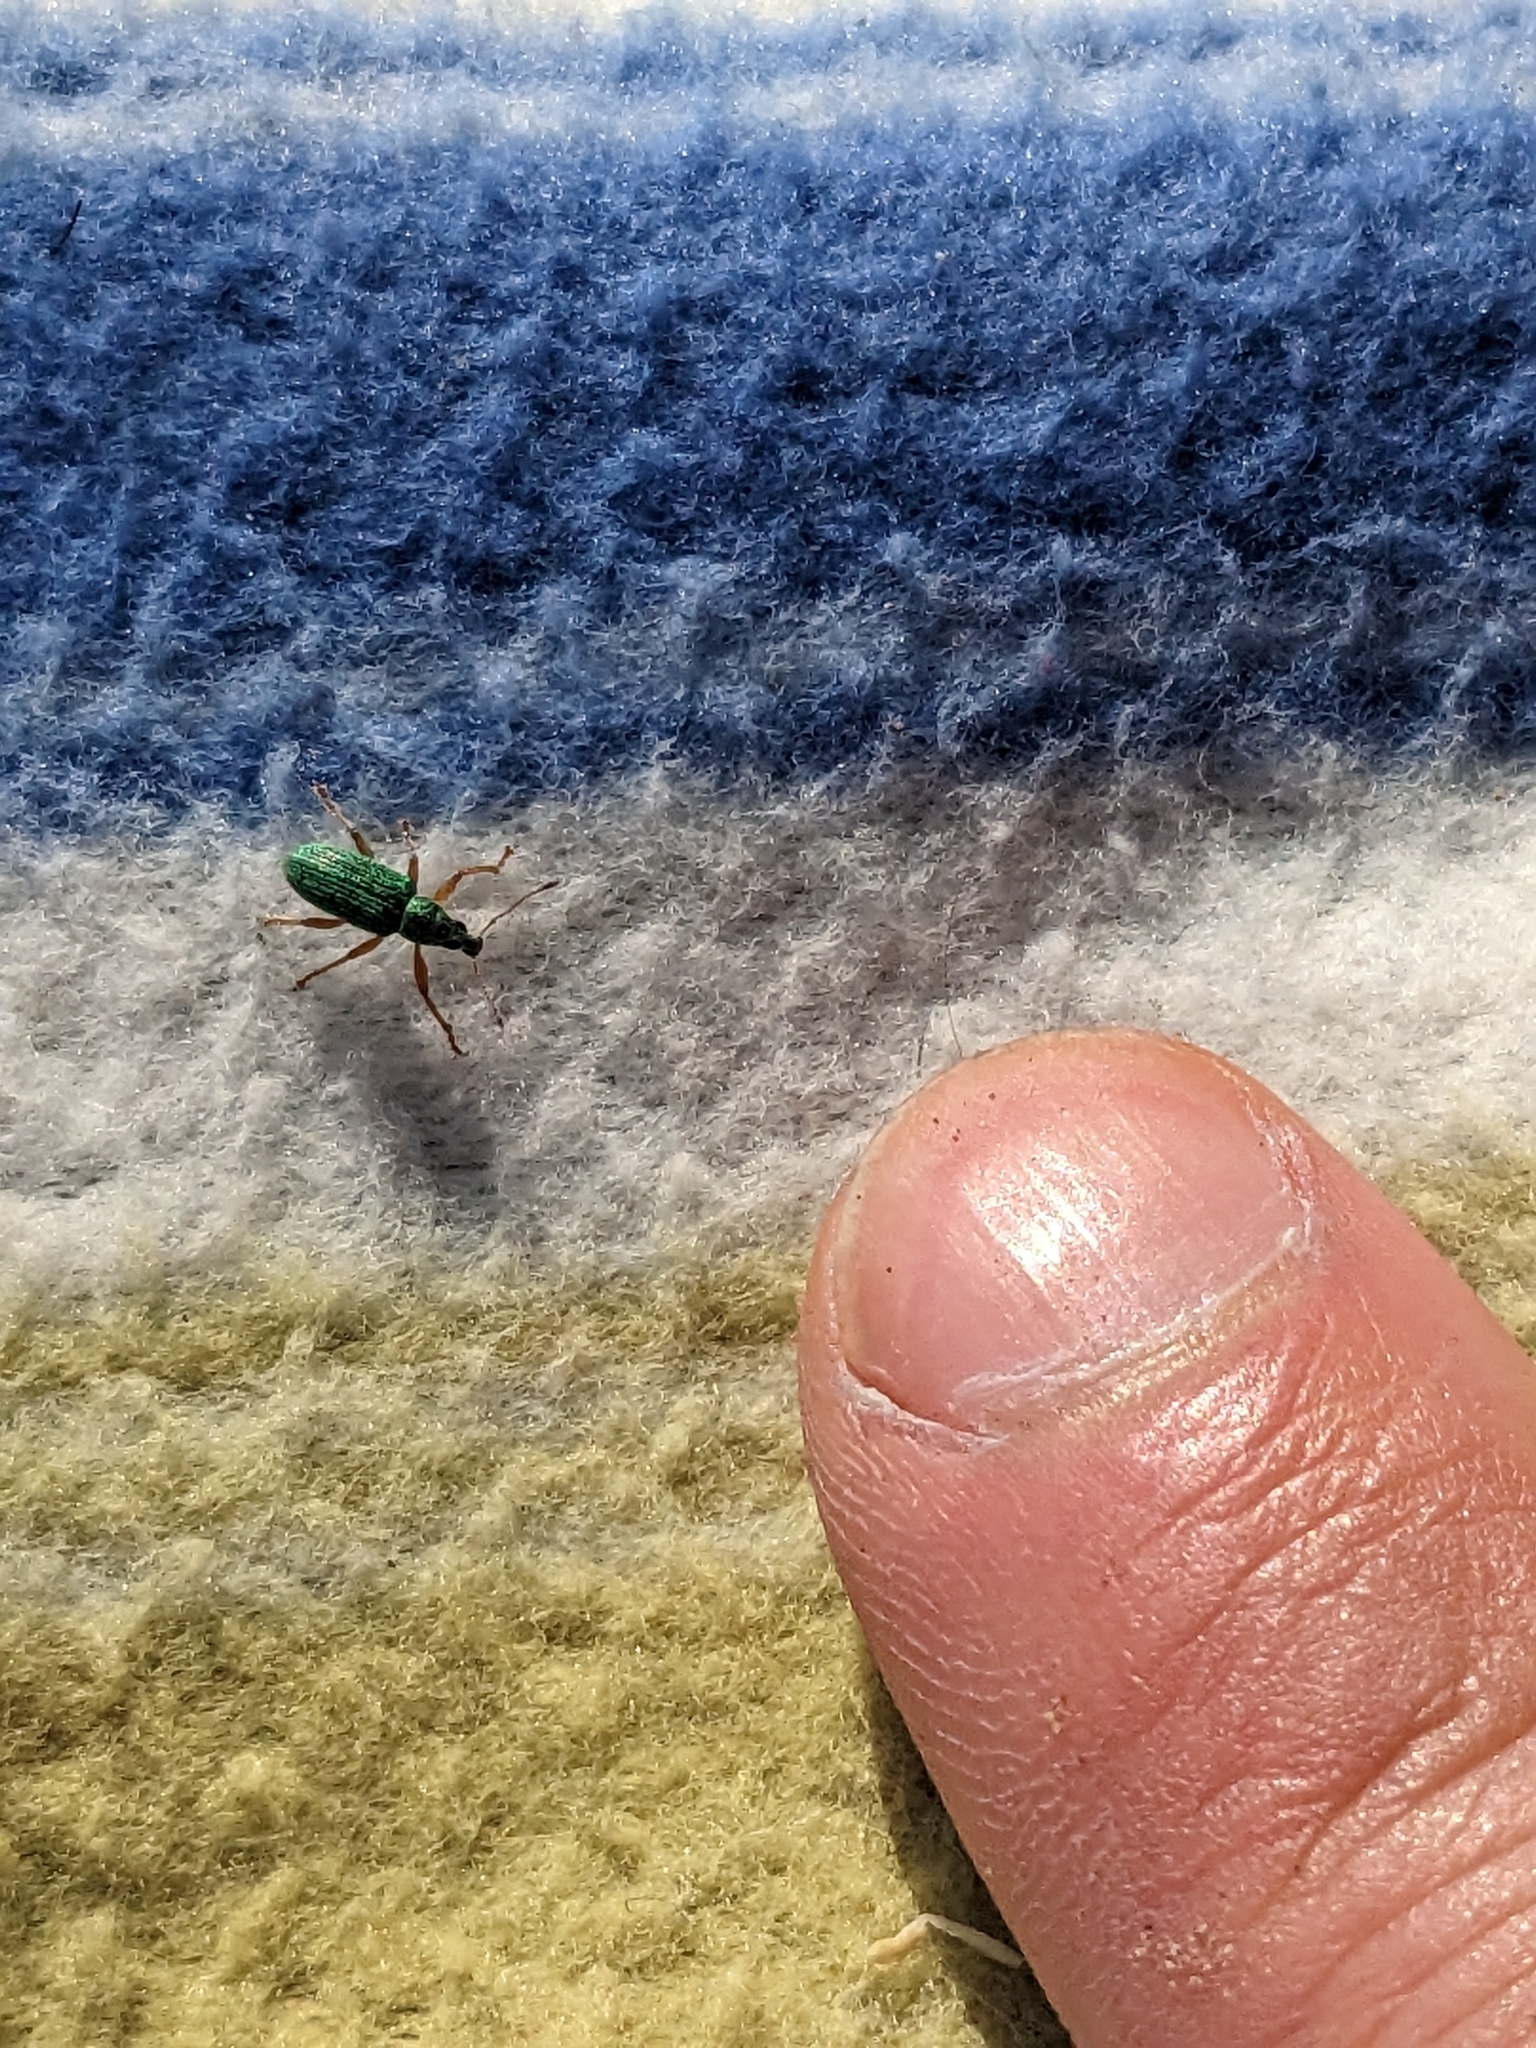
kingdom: Animalia
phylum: Arthropoda
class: Insecta
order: Coleoptera
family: Curculionidae
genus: Polydrusus
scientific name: Polydrusus formosus
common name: Weevil
